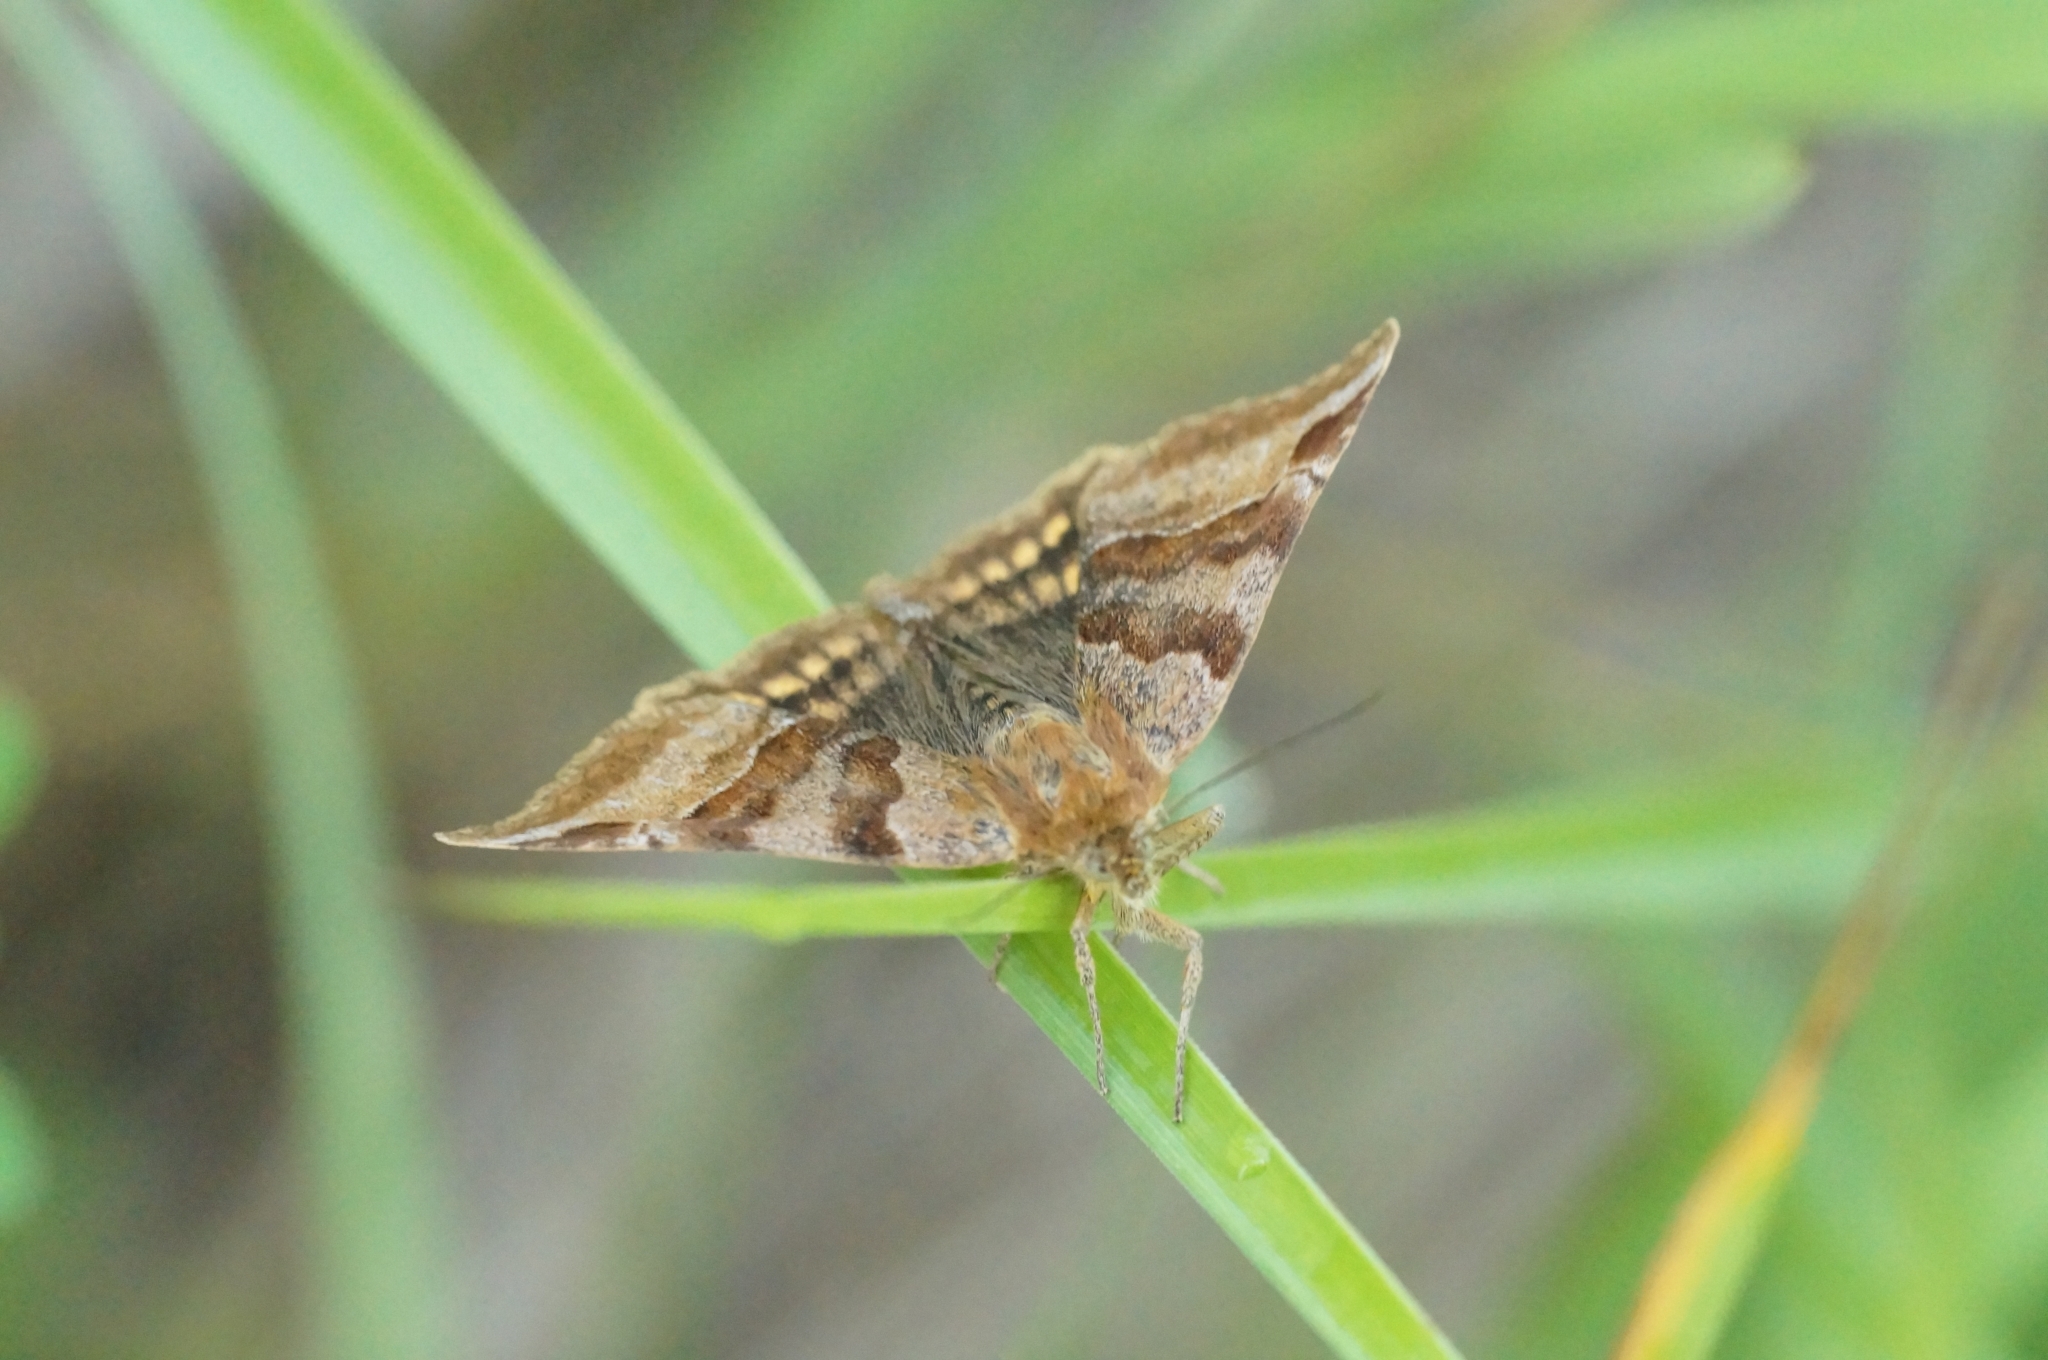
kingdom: Animalia
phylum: Arthropoda
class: Insecta
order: Lepidoptera
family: Erebidae
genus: Euclidia
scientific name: Euclidia glyphica
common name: Burnet companion
